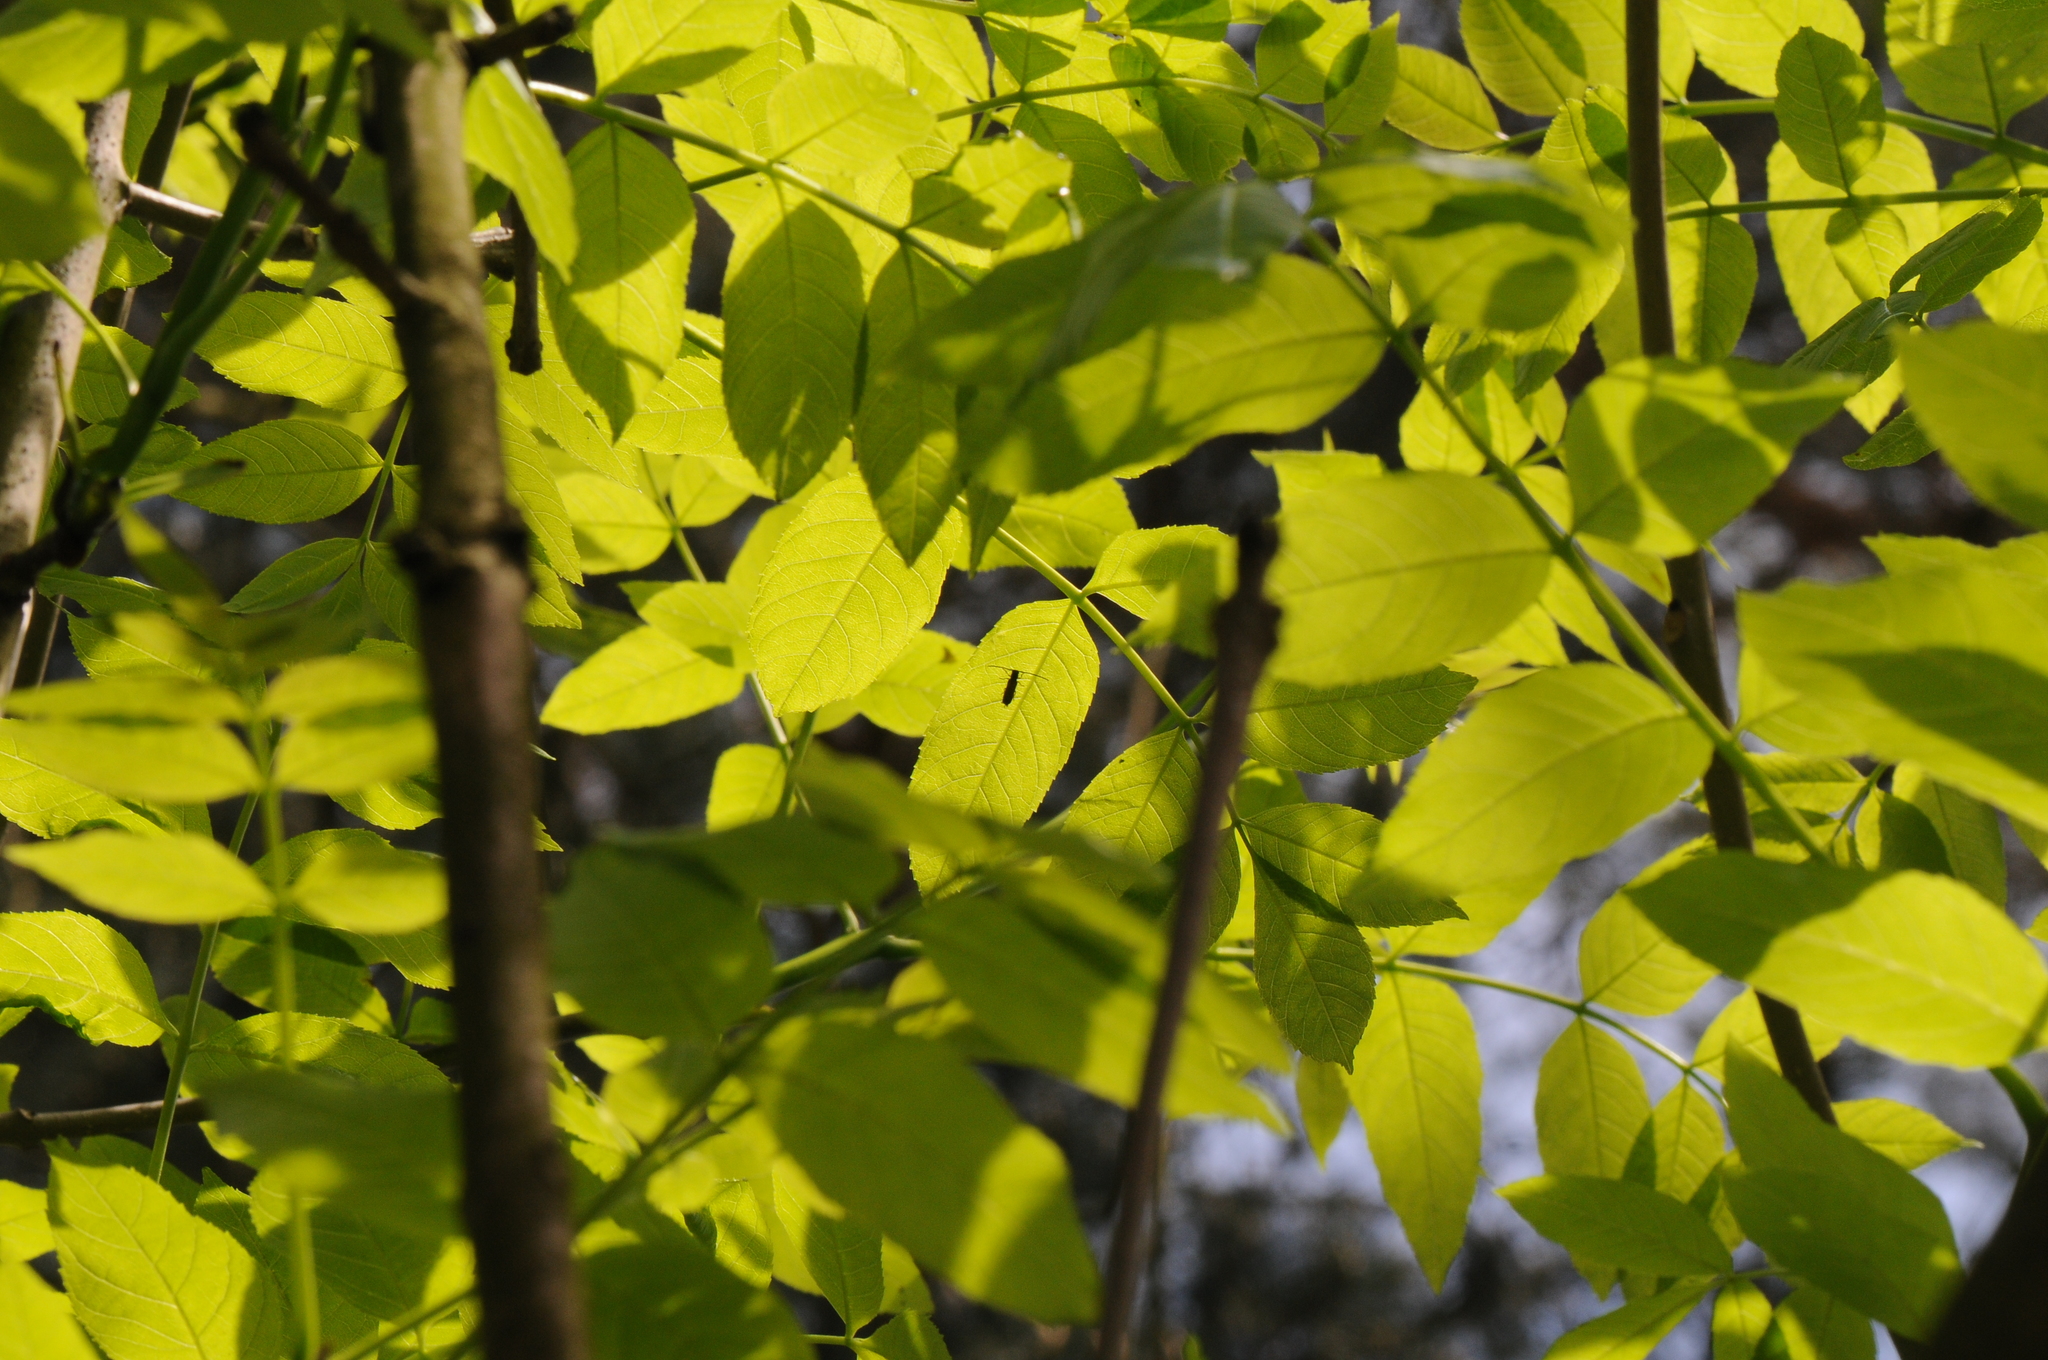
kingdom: Animalia
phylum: Arthropoda
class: Insecta
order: Coleoptera
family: Cerambycidae
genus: Tetrops
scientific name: Tetrops starkii
